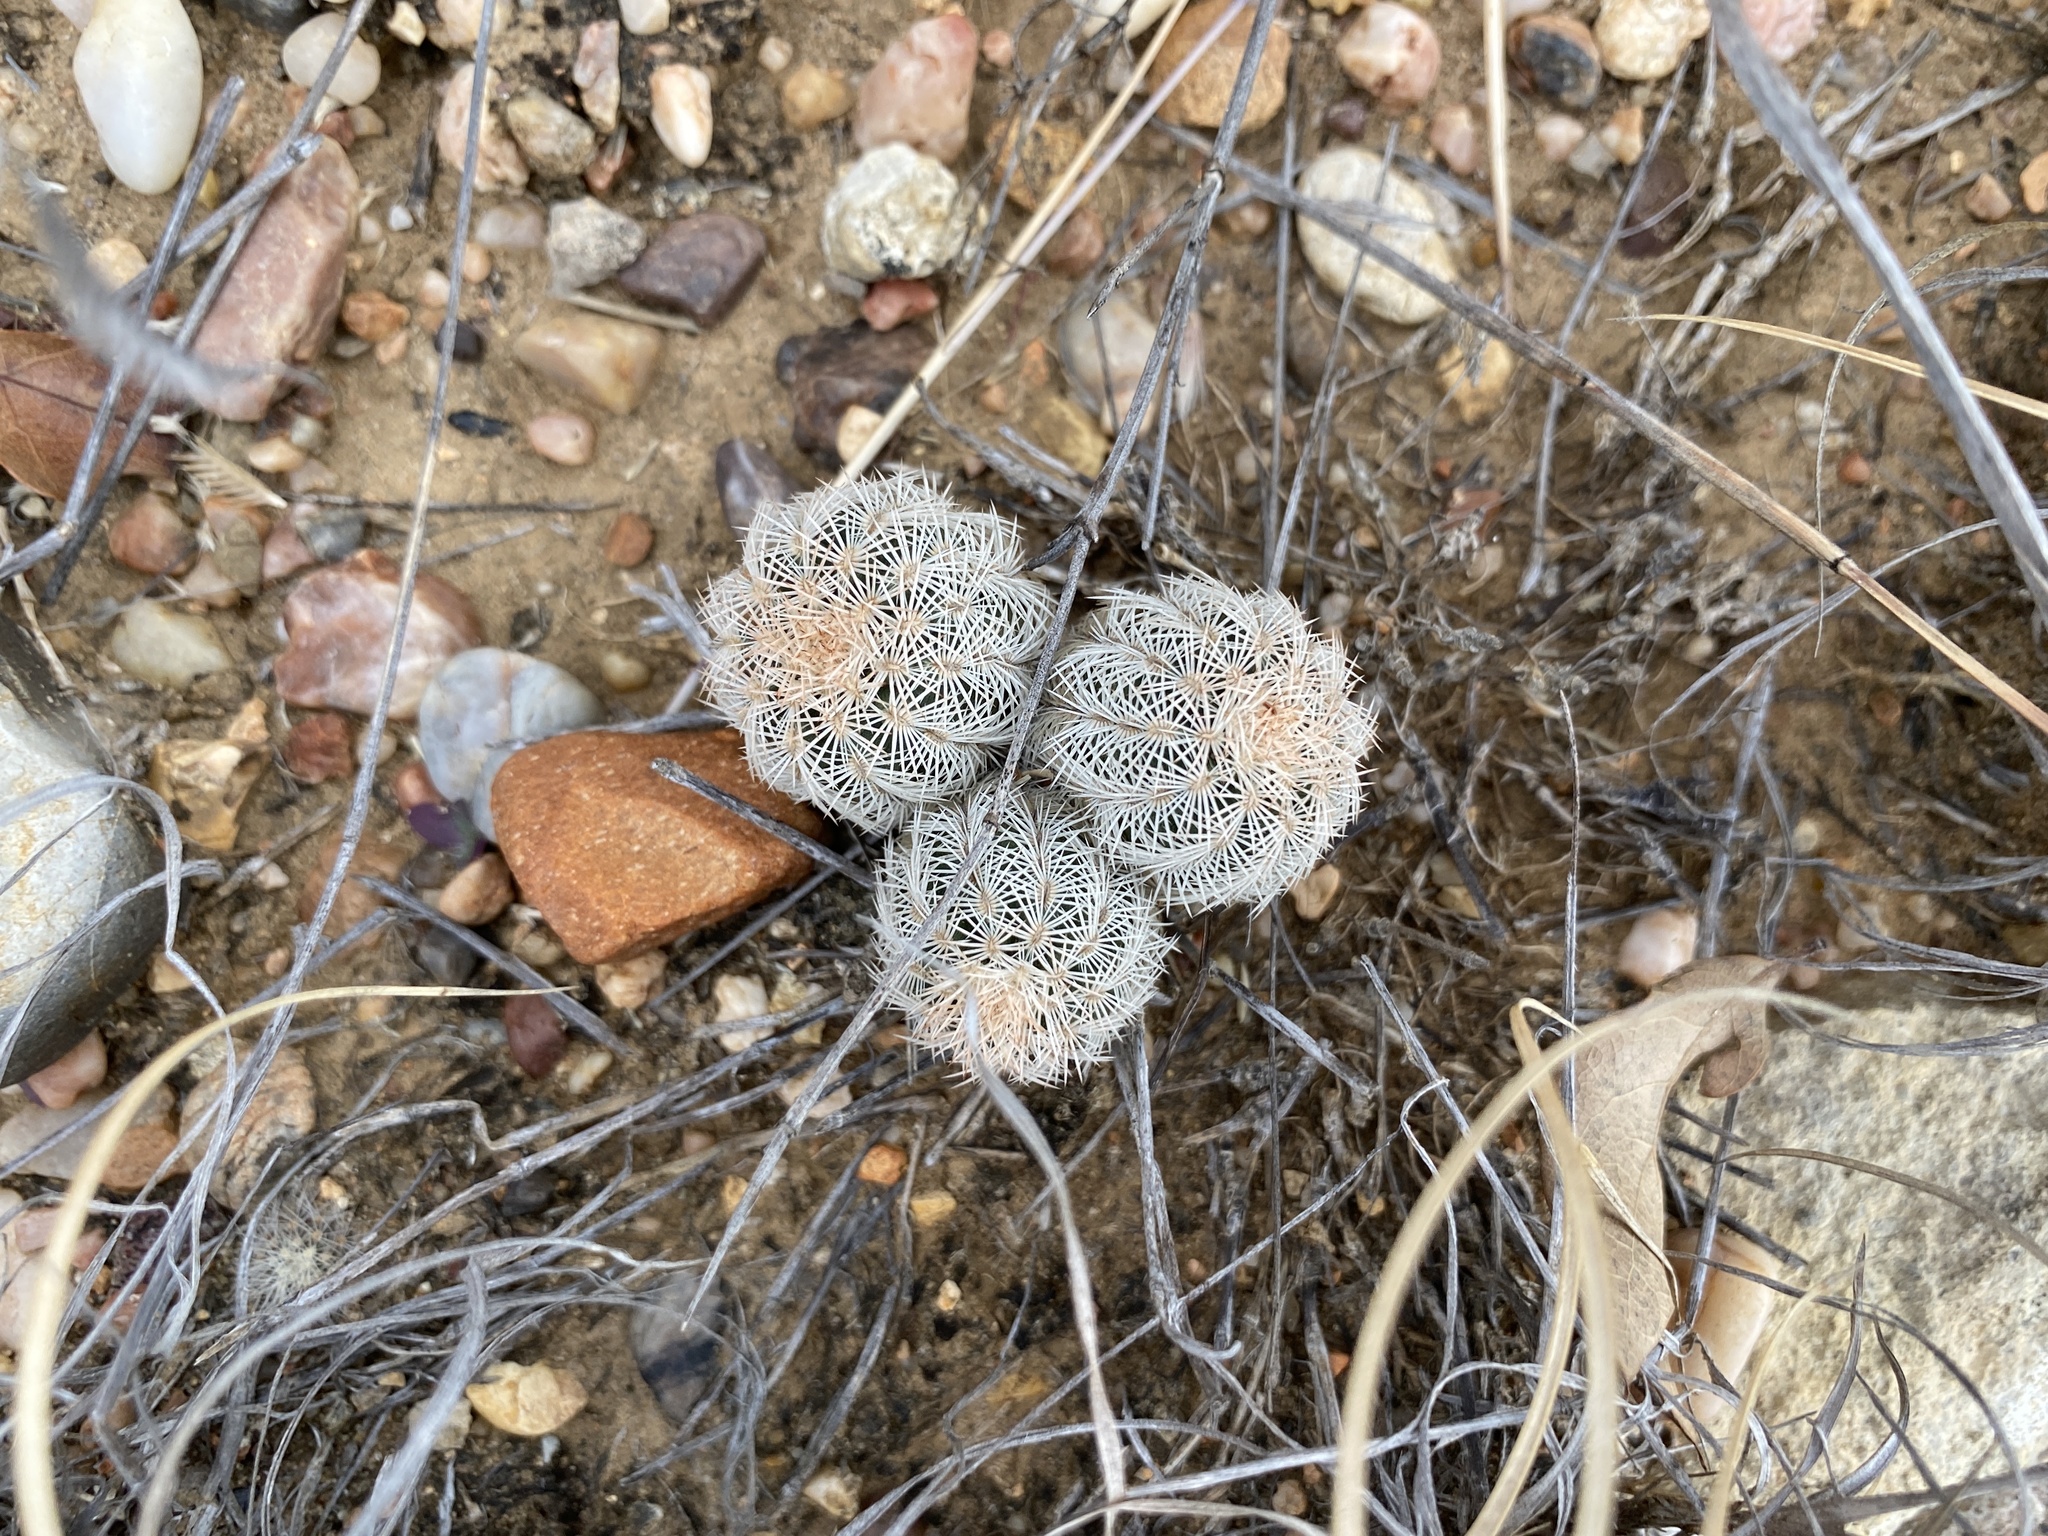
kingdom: Plantae
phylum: Tracheophyta
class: Magnoliopsida
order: Caryophyllales
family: Cactaceae
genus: Echinocereus
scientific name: Echinocereus reichenbachii
